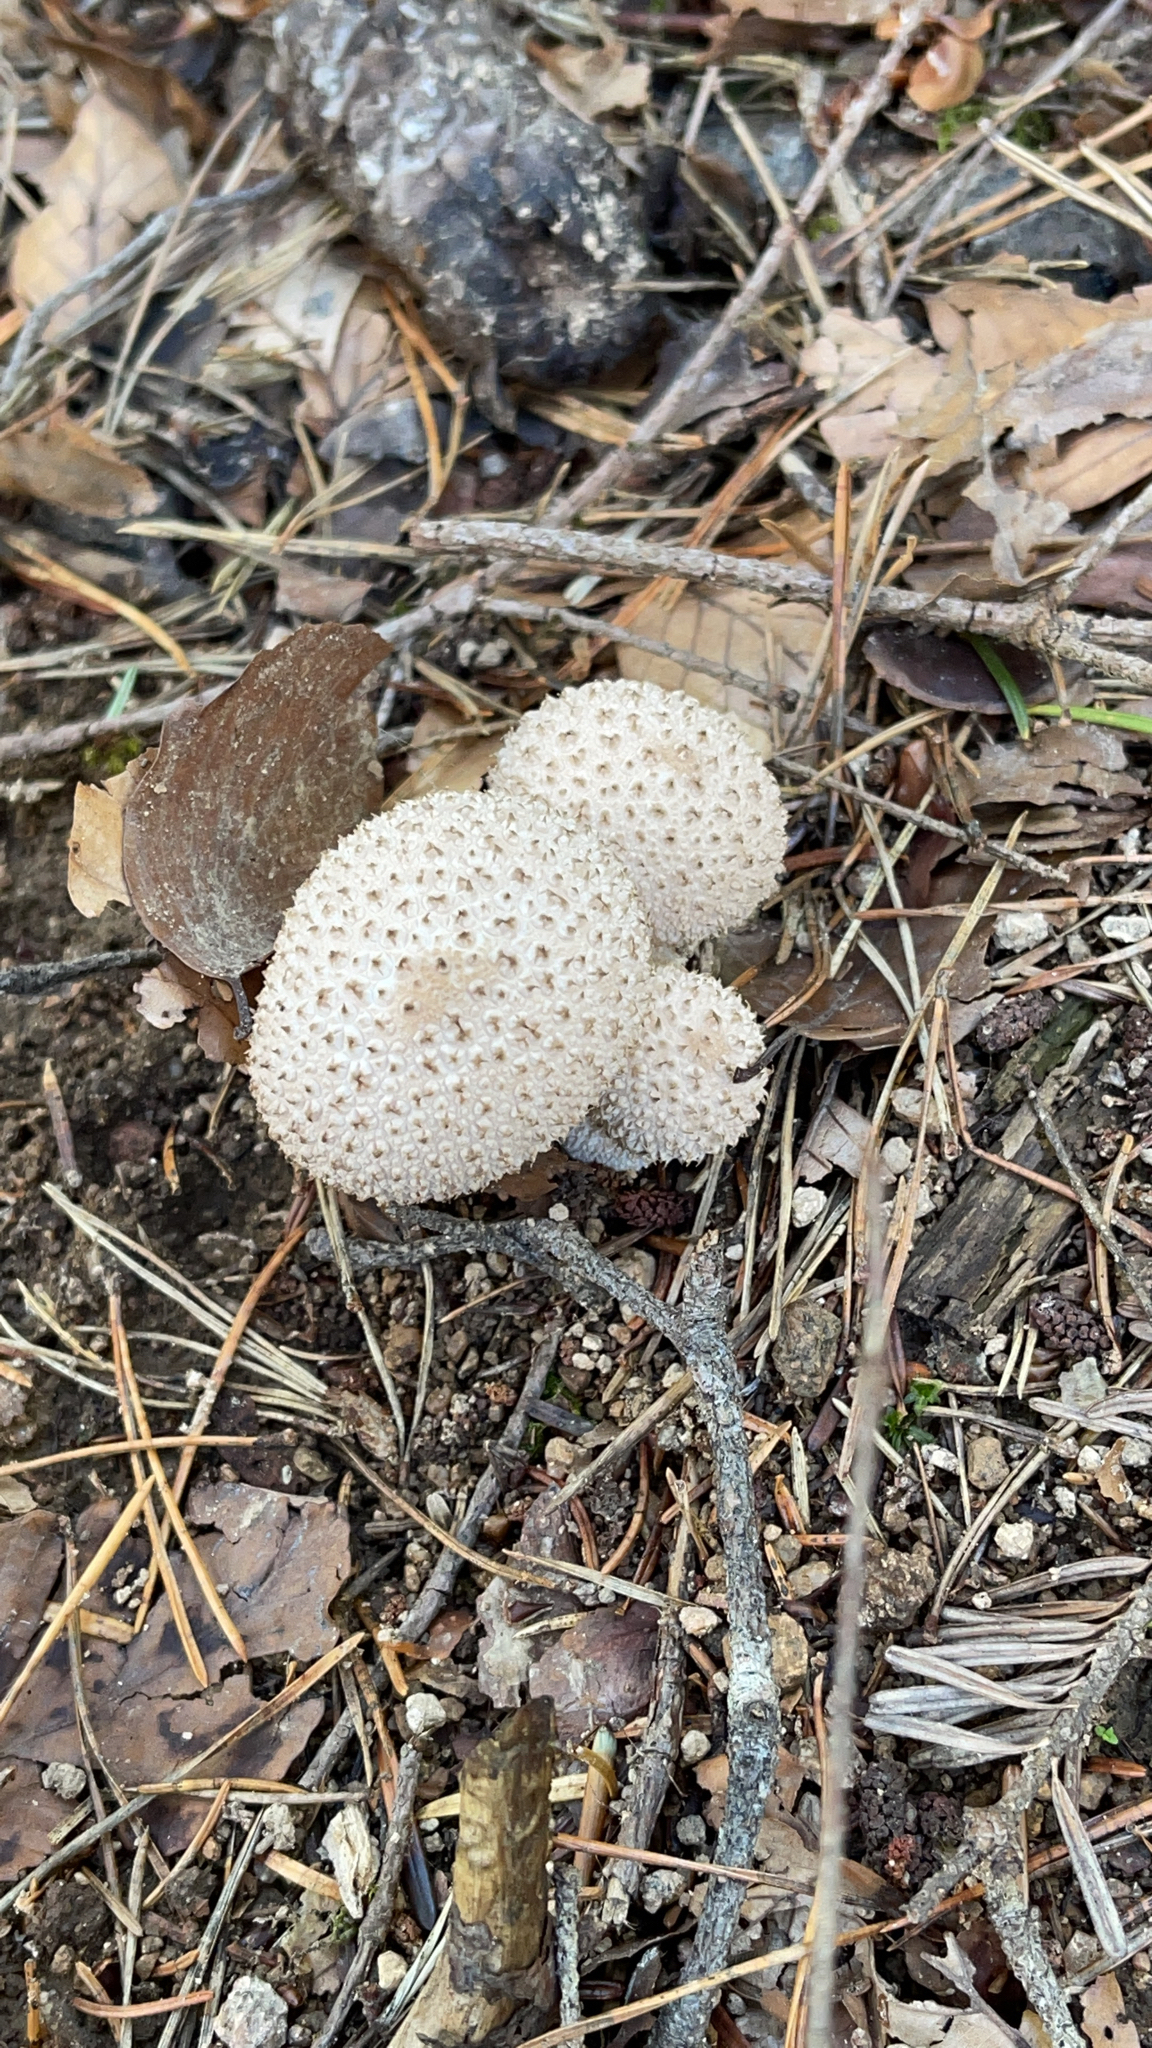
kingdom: Fungi
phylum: Basidiomycota
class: Agaricomycetes
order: Agaricales
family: Lycoperdaceae
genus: Lycoperdon
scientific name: Lycoperdon perlatum
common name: Common puffball
